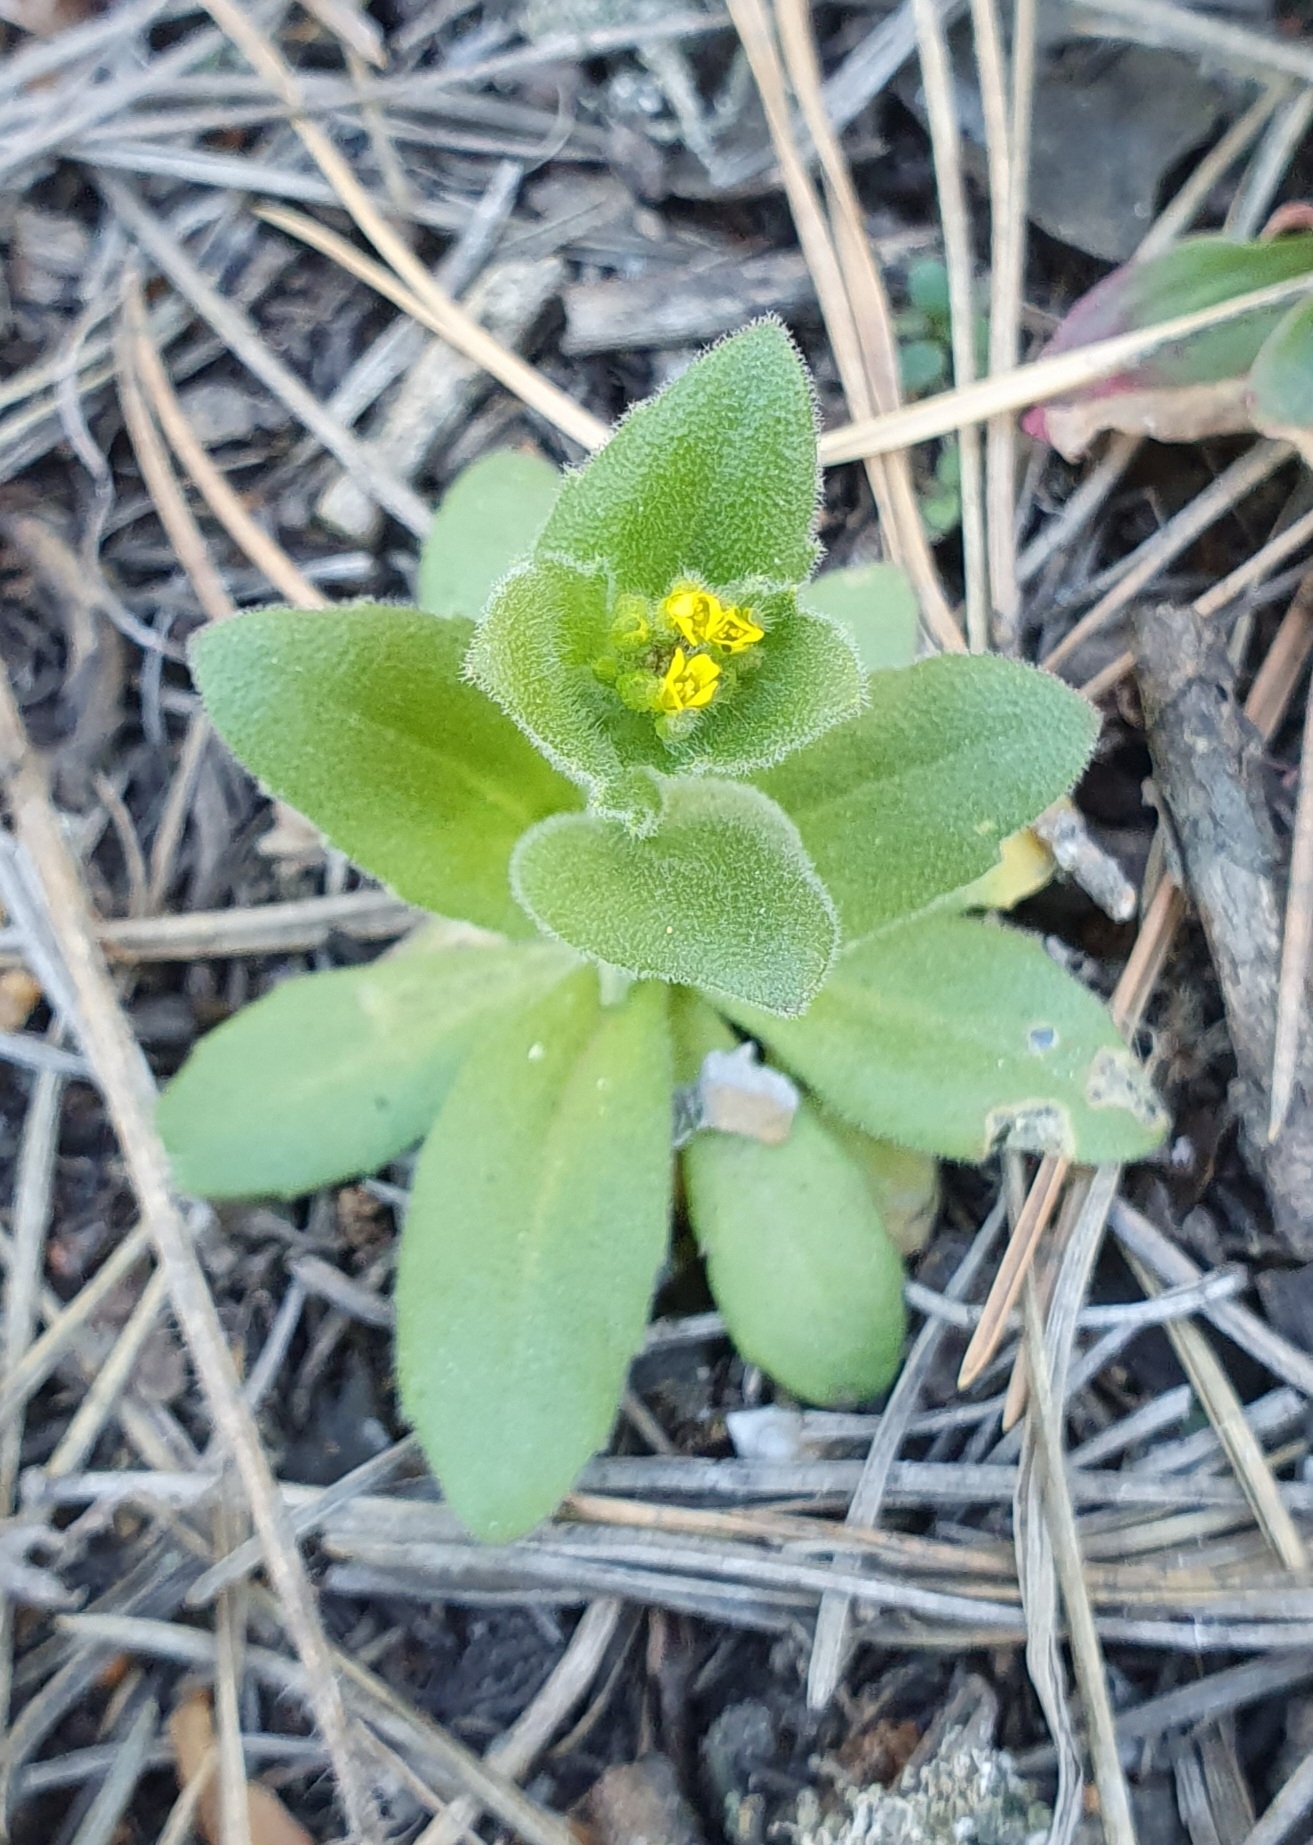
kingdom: Plantae
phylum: Tracheophyta
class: Magnoliopsida
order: Brassicales
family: Brassicaceae
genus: Draba
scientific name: Draba nemorosa
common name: Wood whitlow-grass
